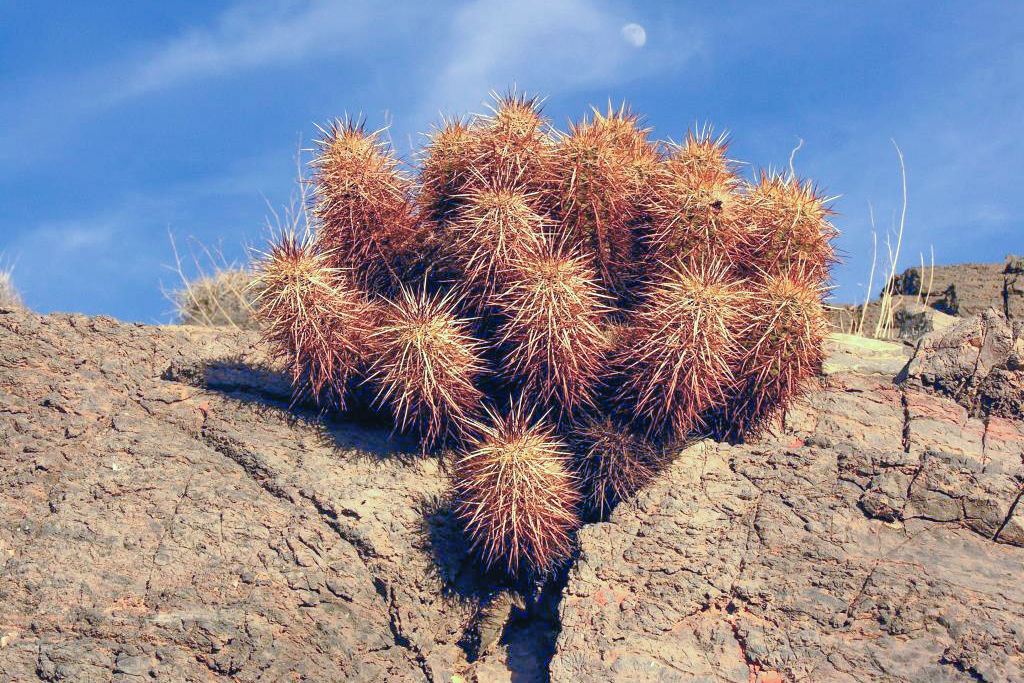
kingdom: Plantae
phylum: Tracheophyta
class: Magnoliopsida
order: Caryophyllales
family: Cactaceae
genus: Echinocereus
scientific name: Echinocereus engelmannii
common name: Engelmann's hedgehog cactus
